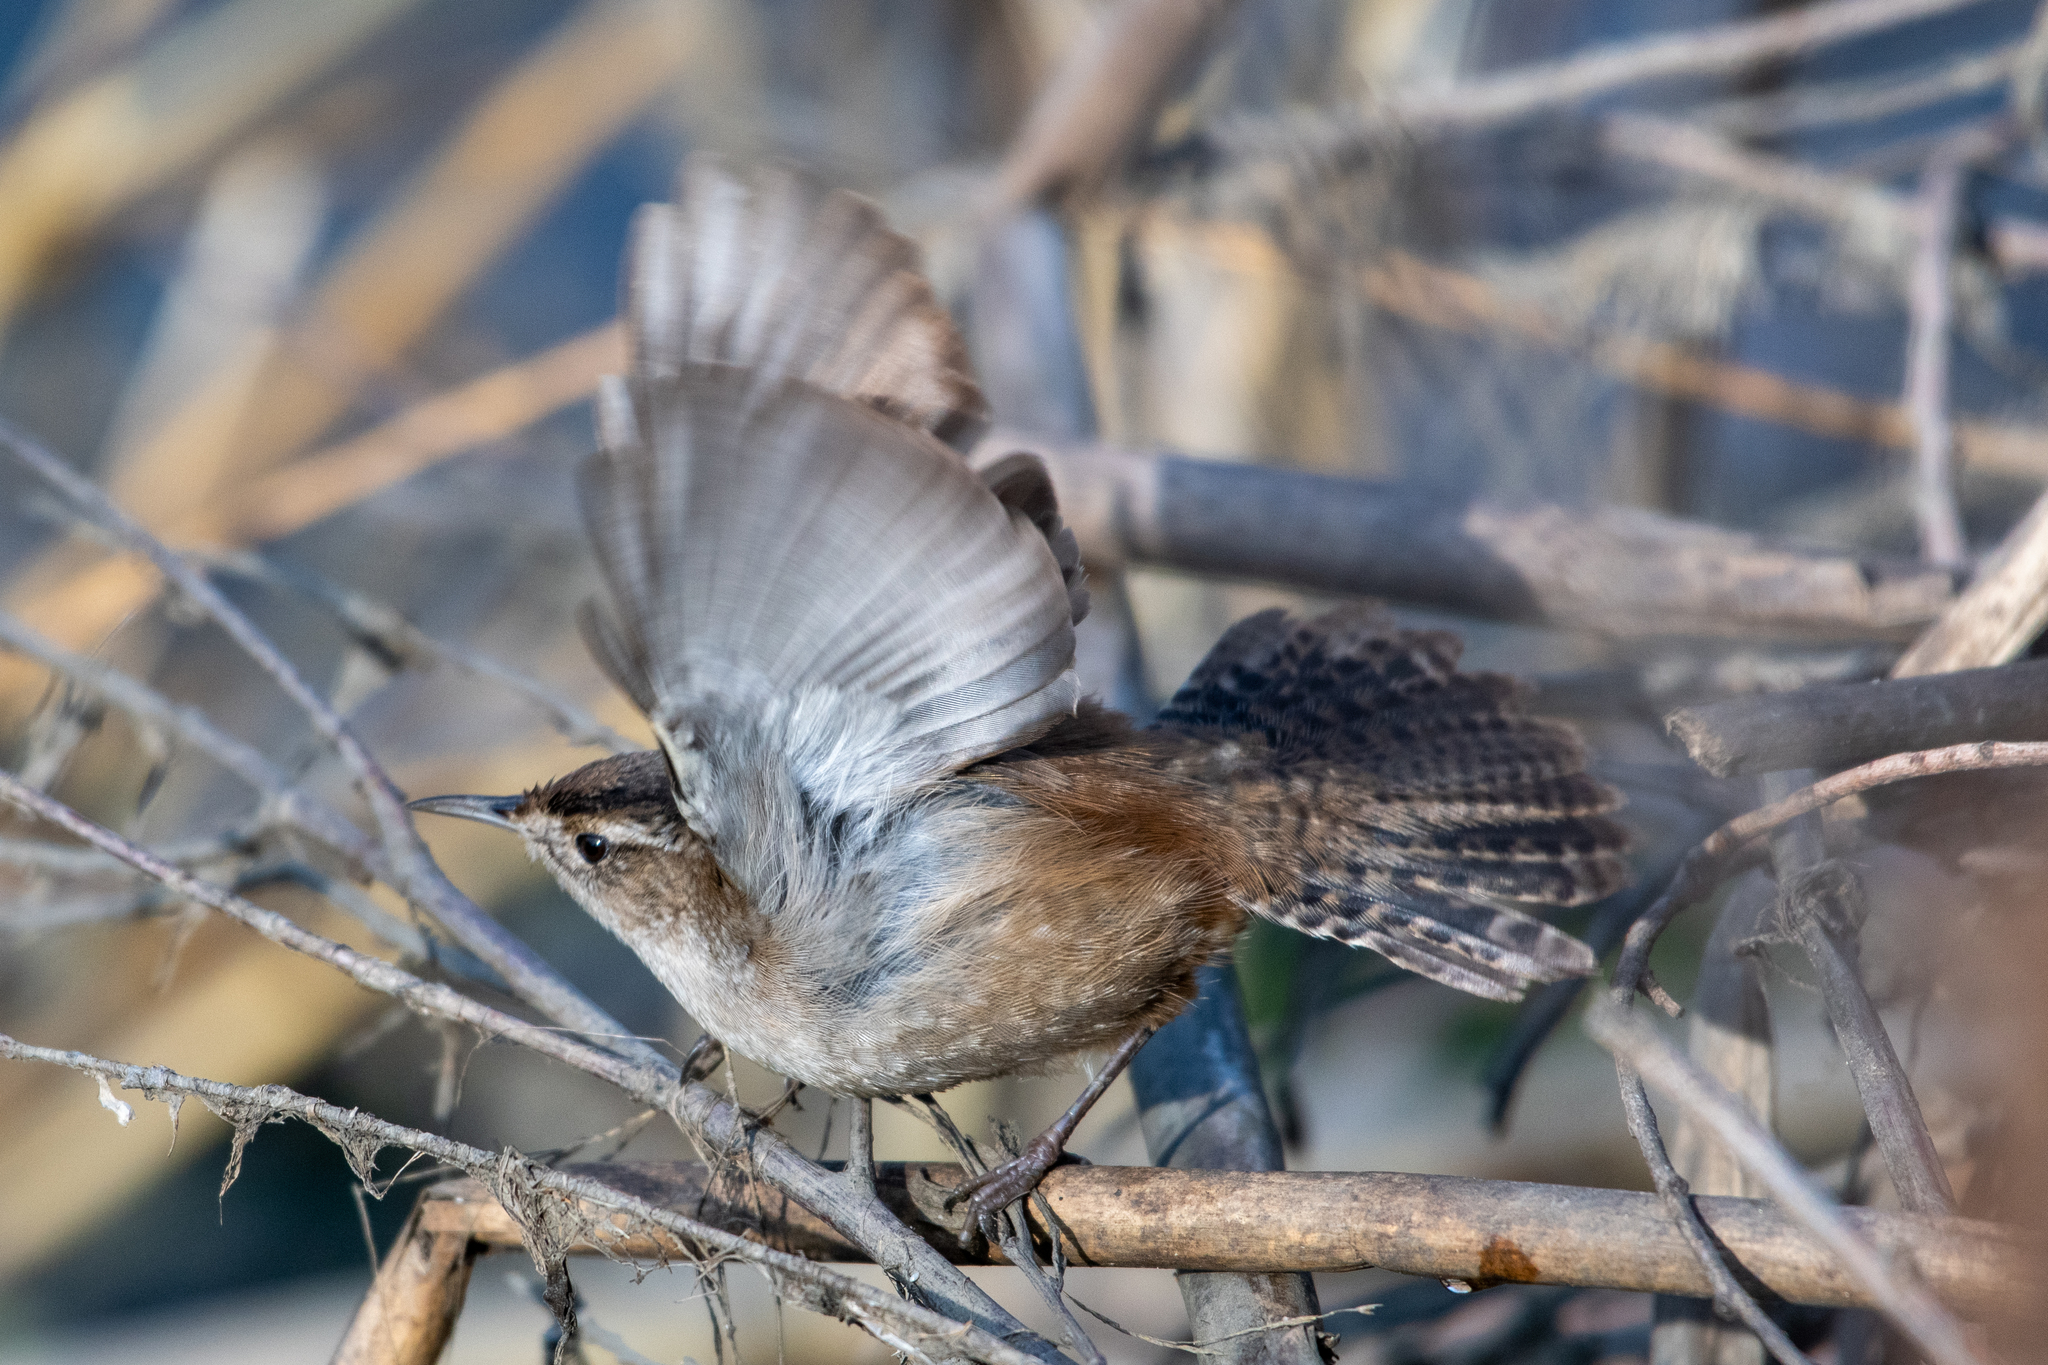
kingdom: Animalia
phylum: Chordata
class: Aves
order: Passeriformes
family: Troglodytidae
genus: Cistothorus
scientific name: Cistothorus palustris
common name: Marsh wren
